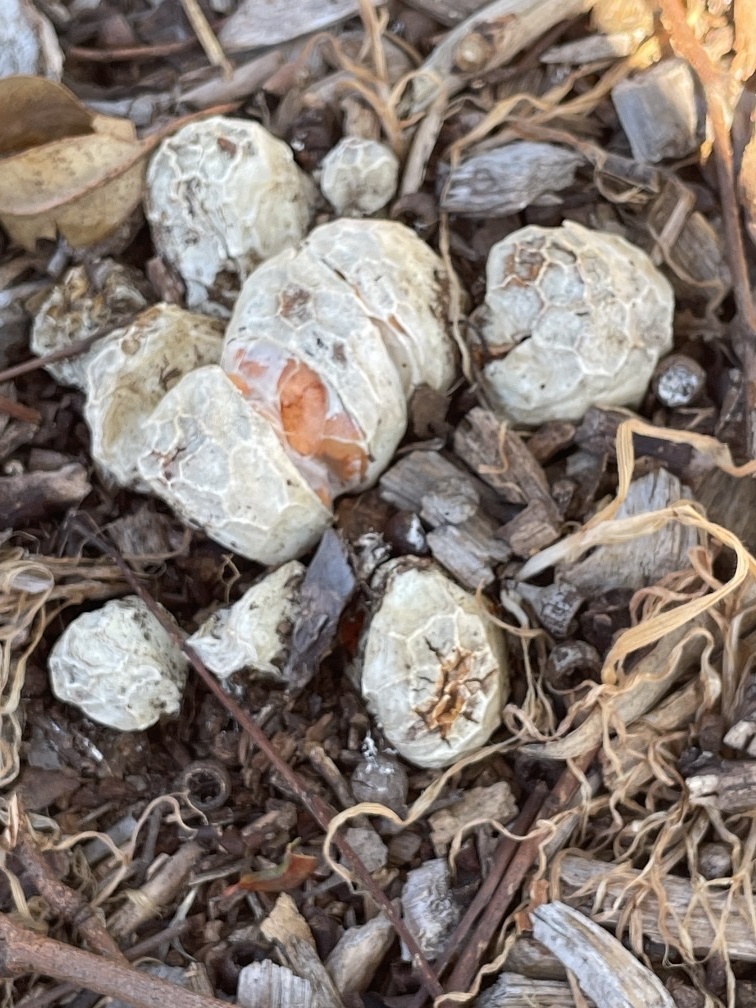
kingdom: Fungi
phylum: Basidiomycota
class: Agaricomycetes
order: Phallales
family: Phallaceae
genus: Clathrus
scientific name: Clathrus ruber
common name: Red cage
